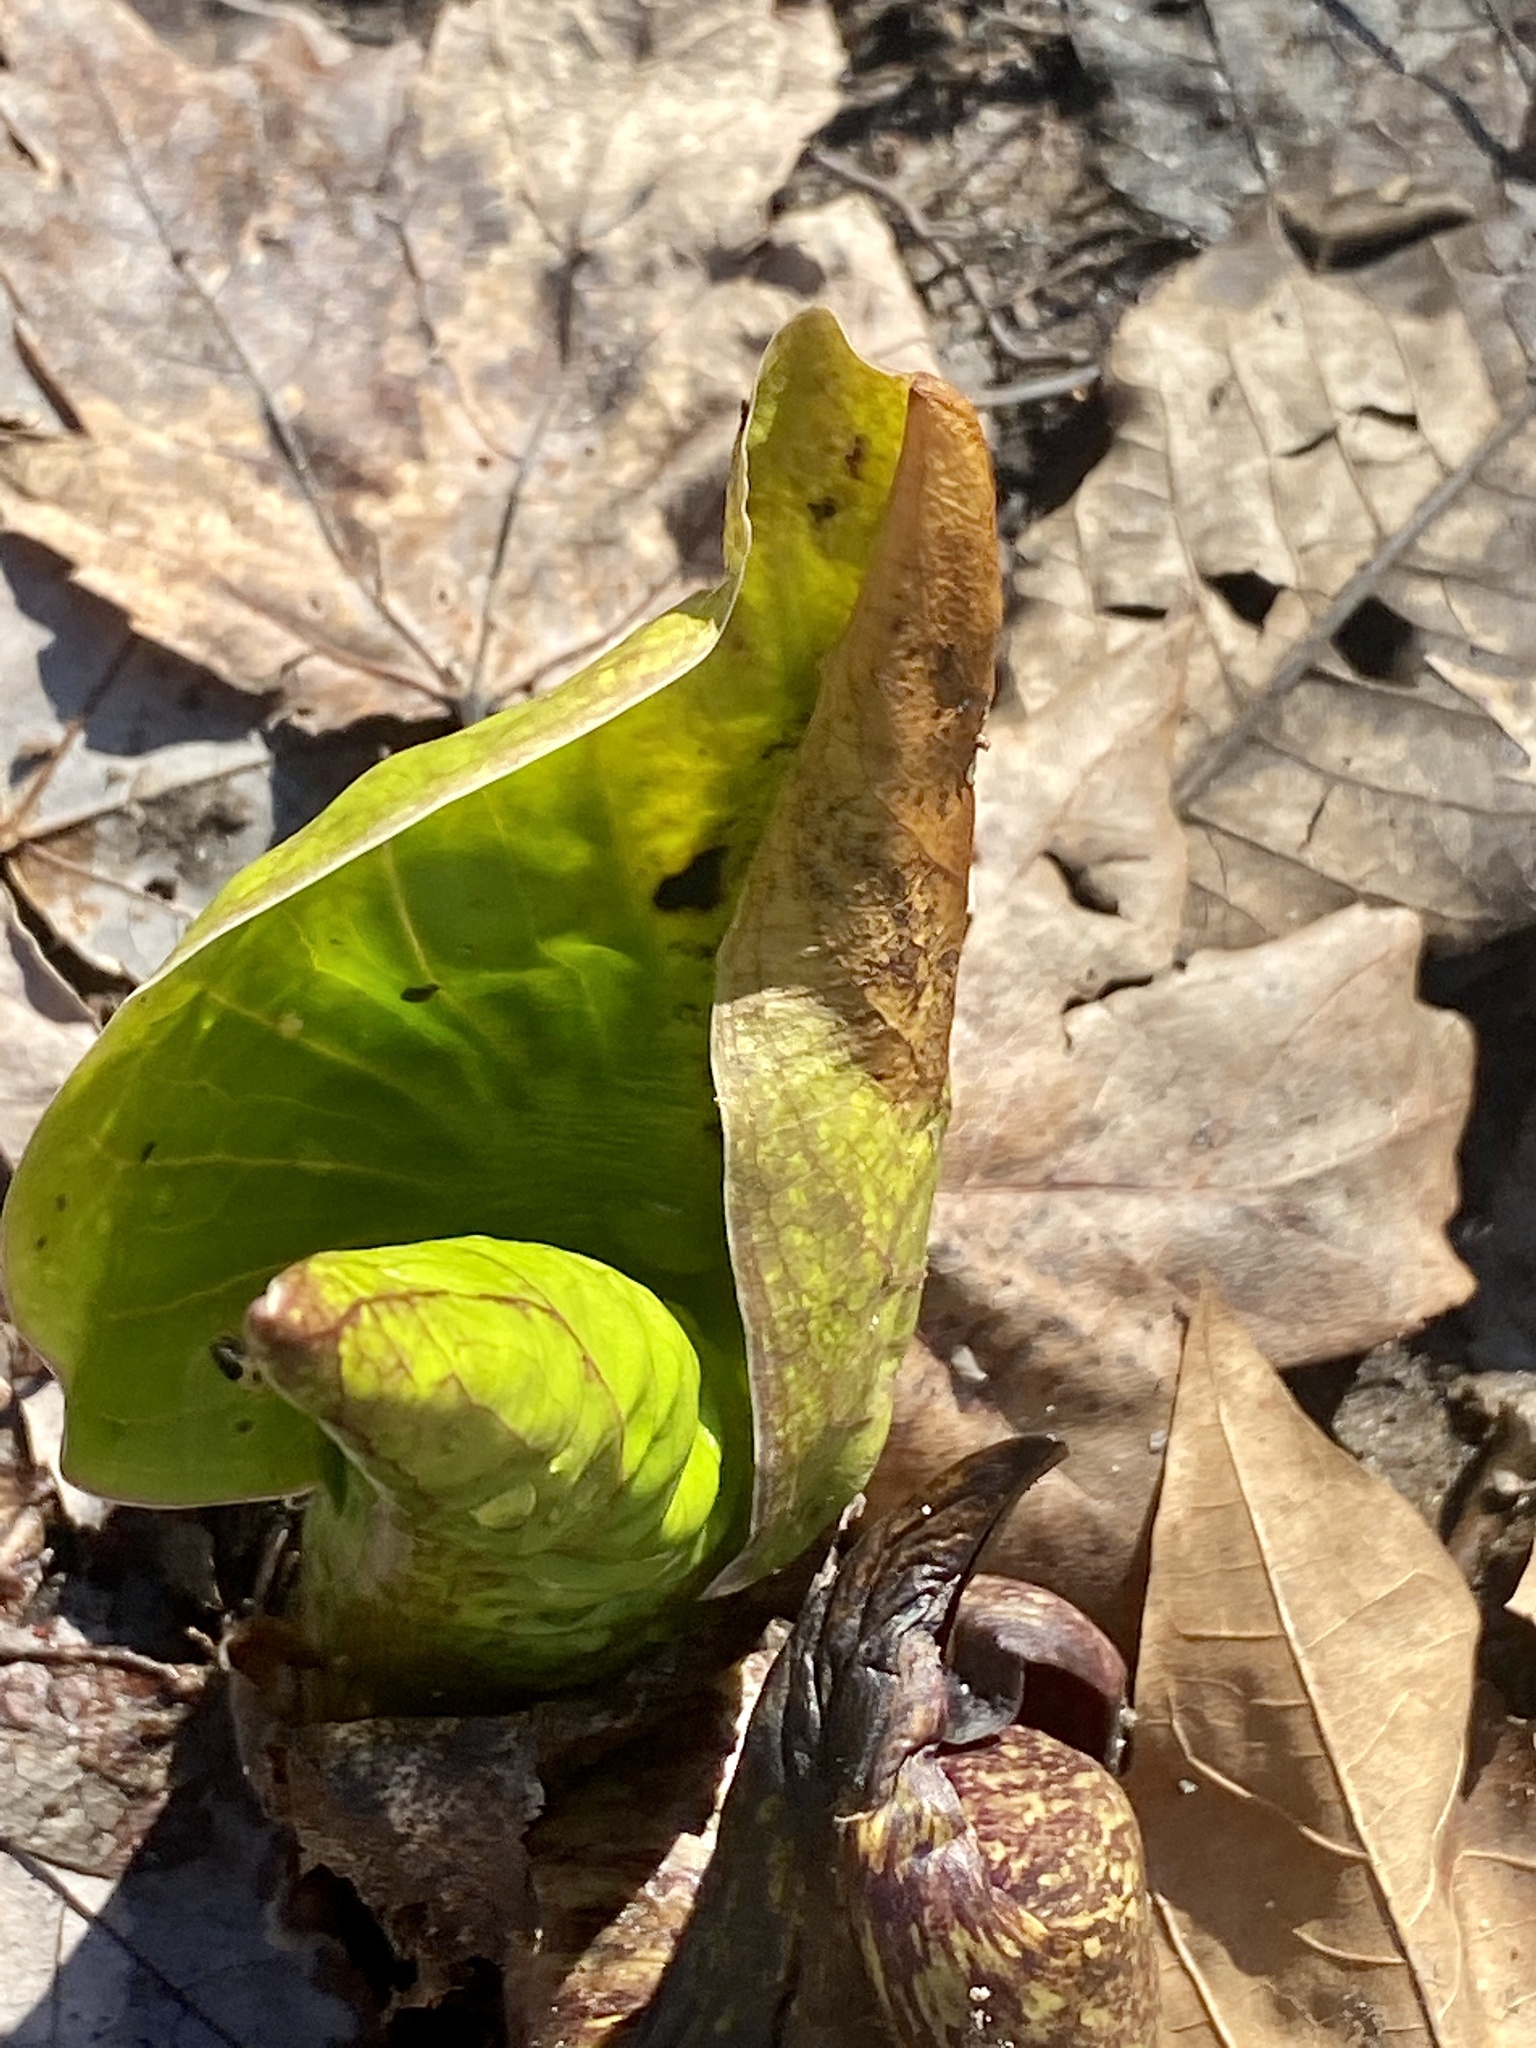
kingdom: Plantae
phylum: Tracheophyta
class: Liliopsida
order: Alismatales
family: Araceae
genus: Symplocarpus
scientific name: Symplocarpus foetidus
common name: Eastern skunk cabbage
